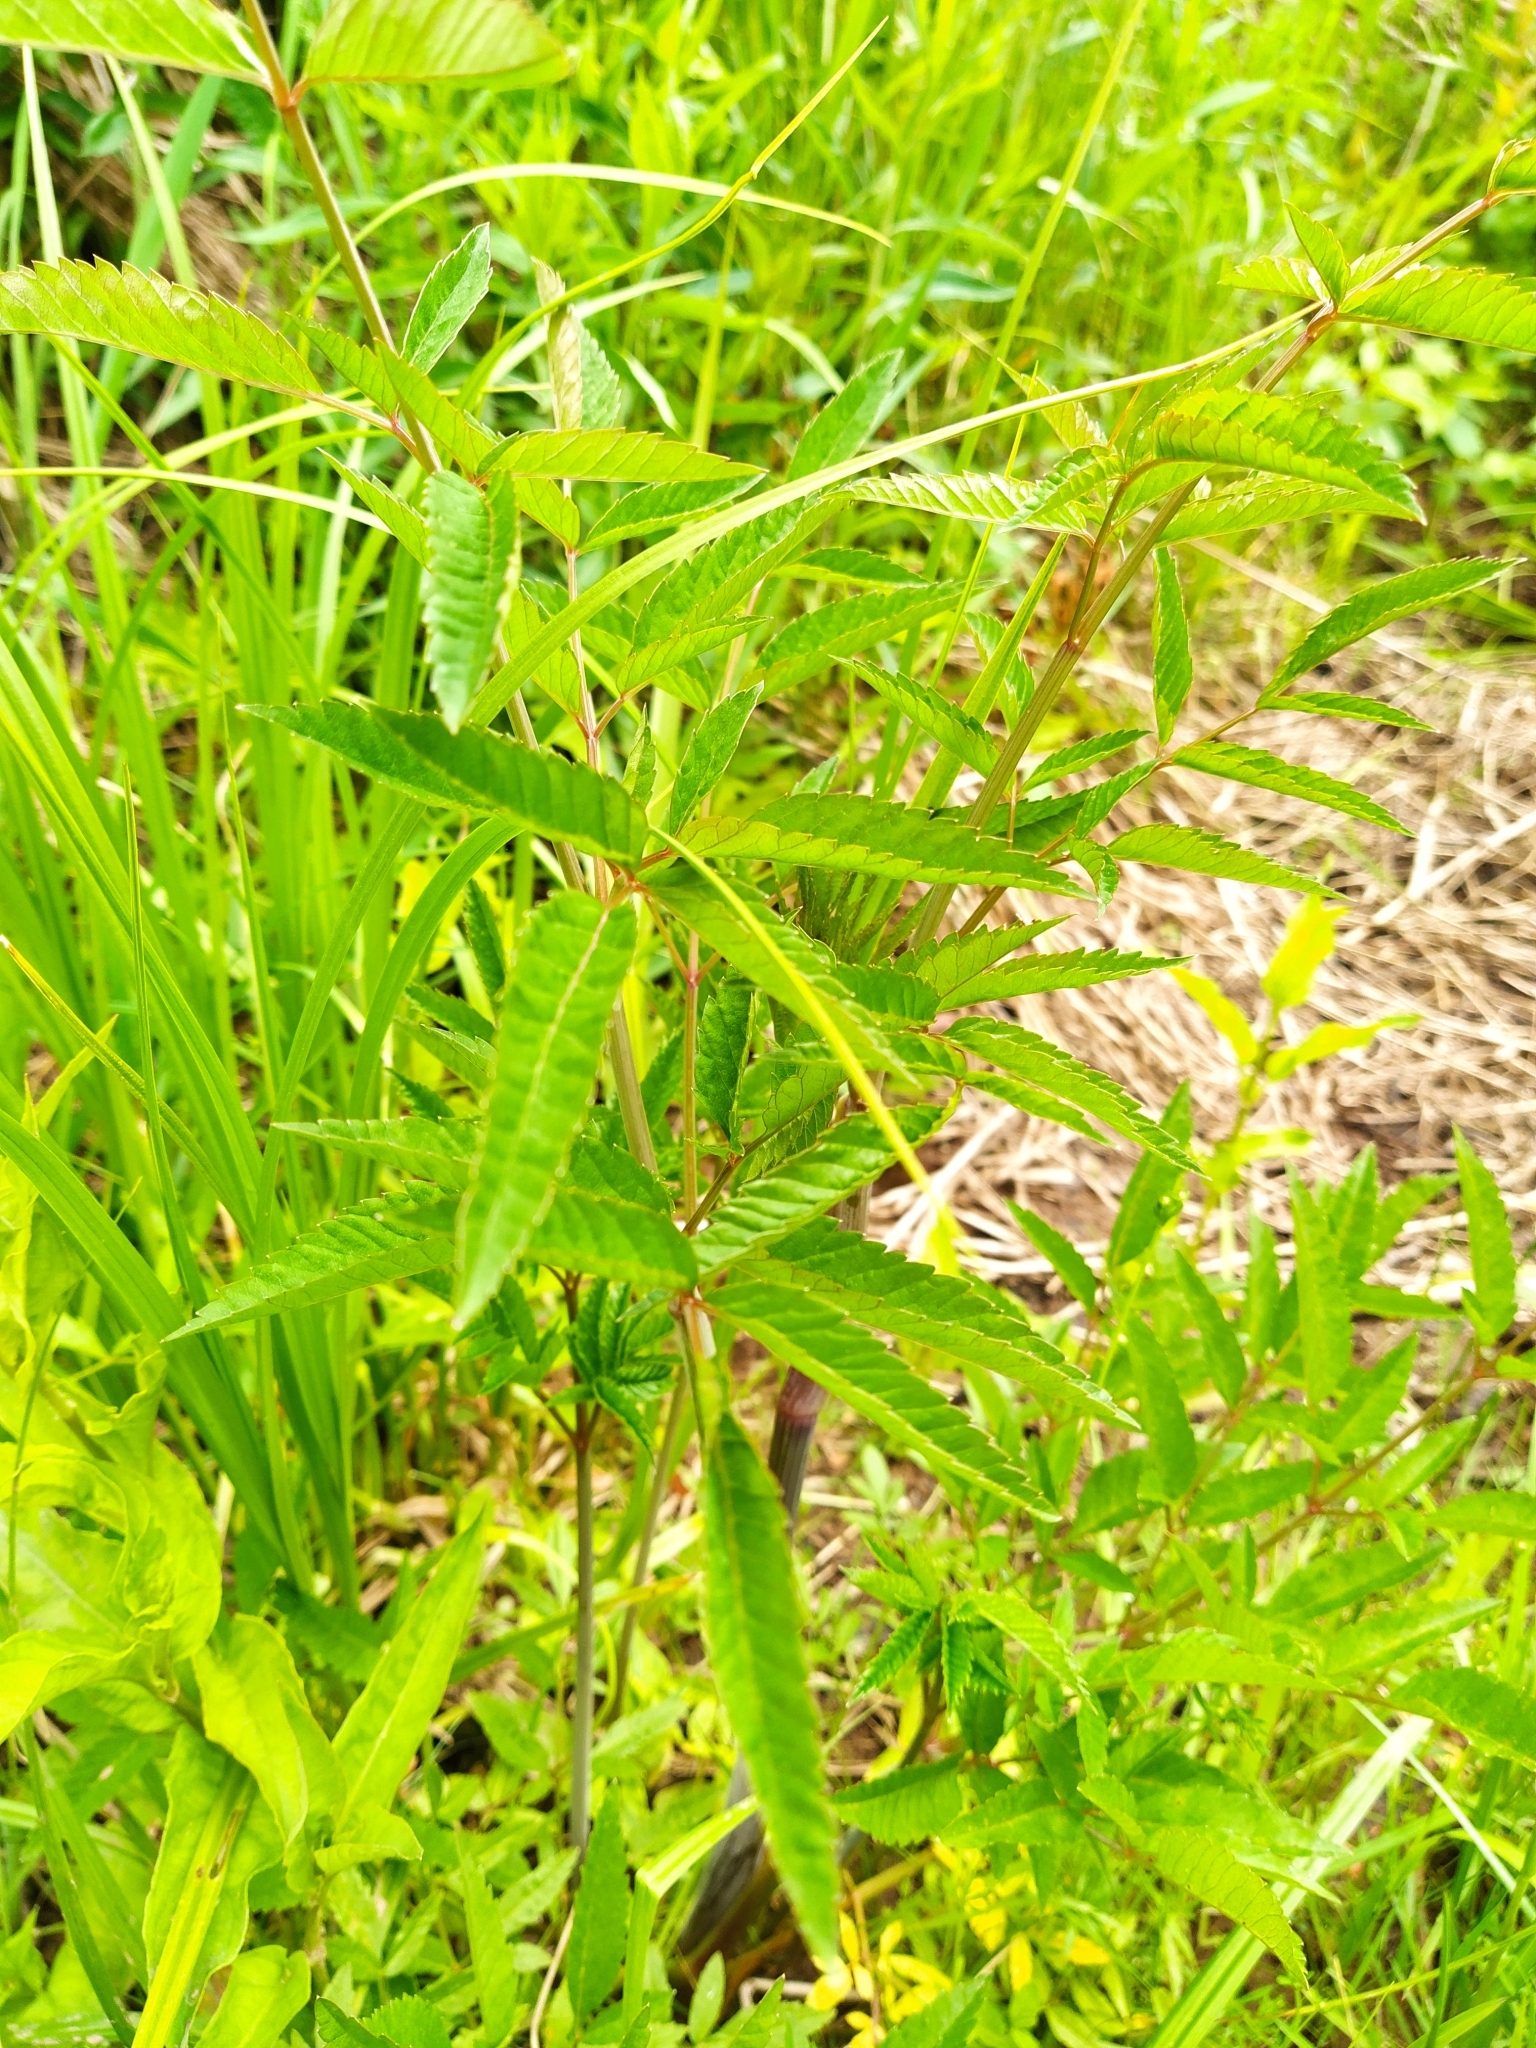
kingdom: Plantae
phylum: Tracheophyta
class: Magnoliopsida
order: Apiales
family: Apiaceae
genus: Cicuta
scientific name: Cicuta maculata
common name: Spotted cowbane
